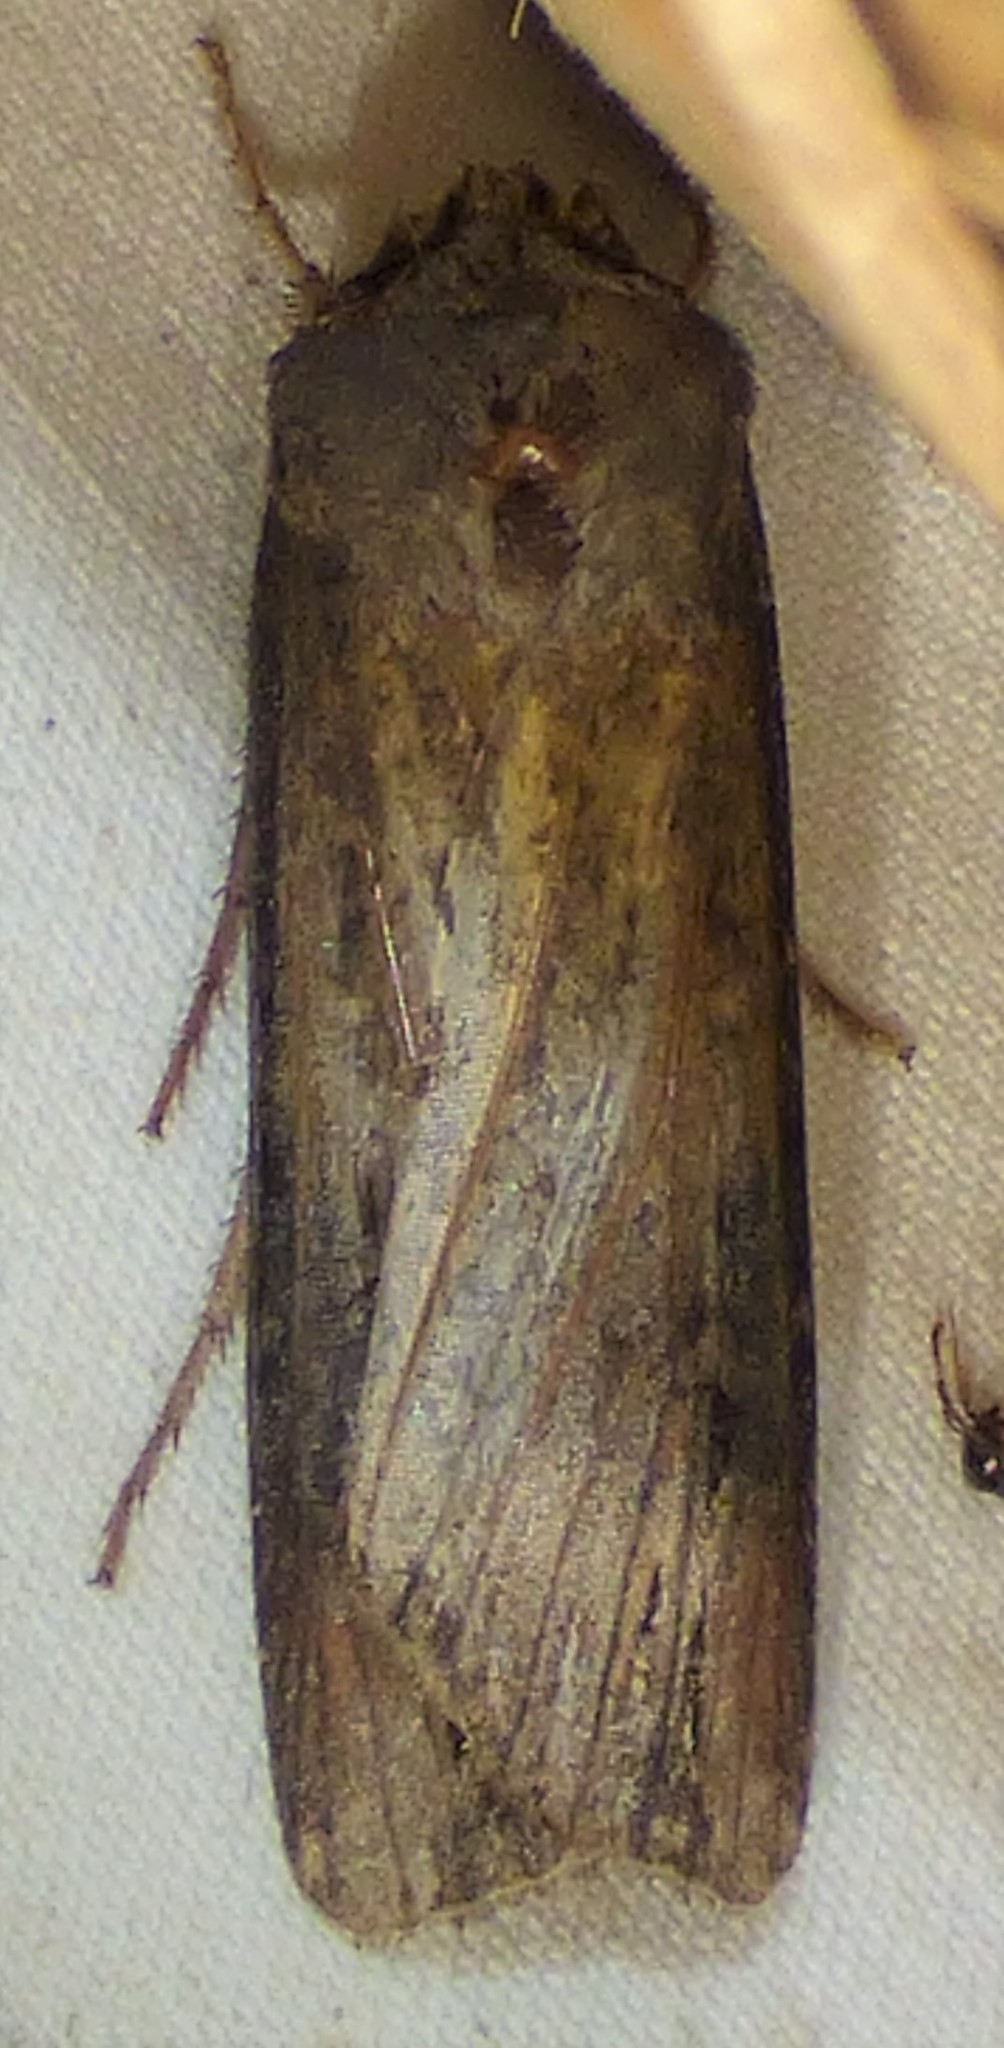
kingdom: Animalia
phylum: Arthropoda
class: Insecta
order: Lepidoptera
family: Noctuidae
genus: Agrotis
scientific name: Agrotis ipsilon
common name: Dark sword-grass
